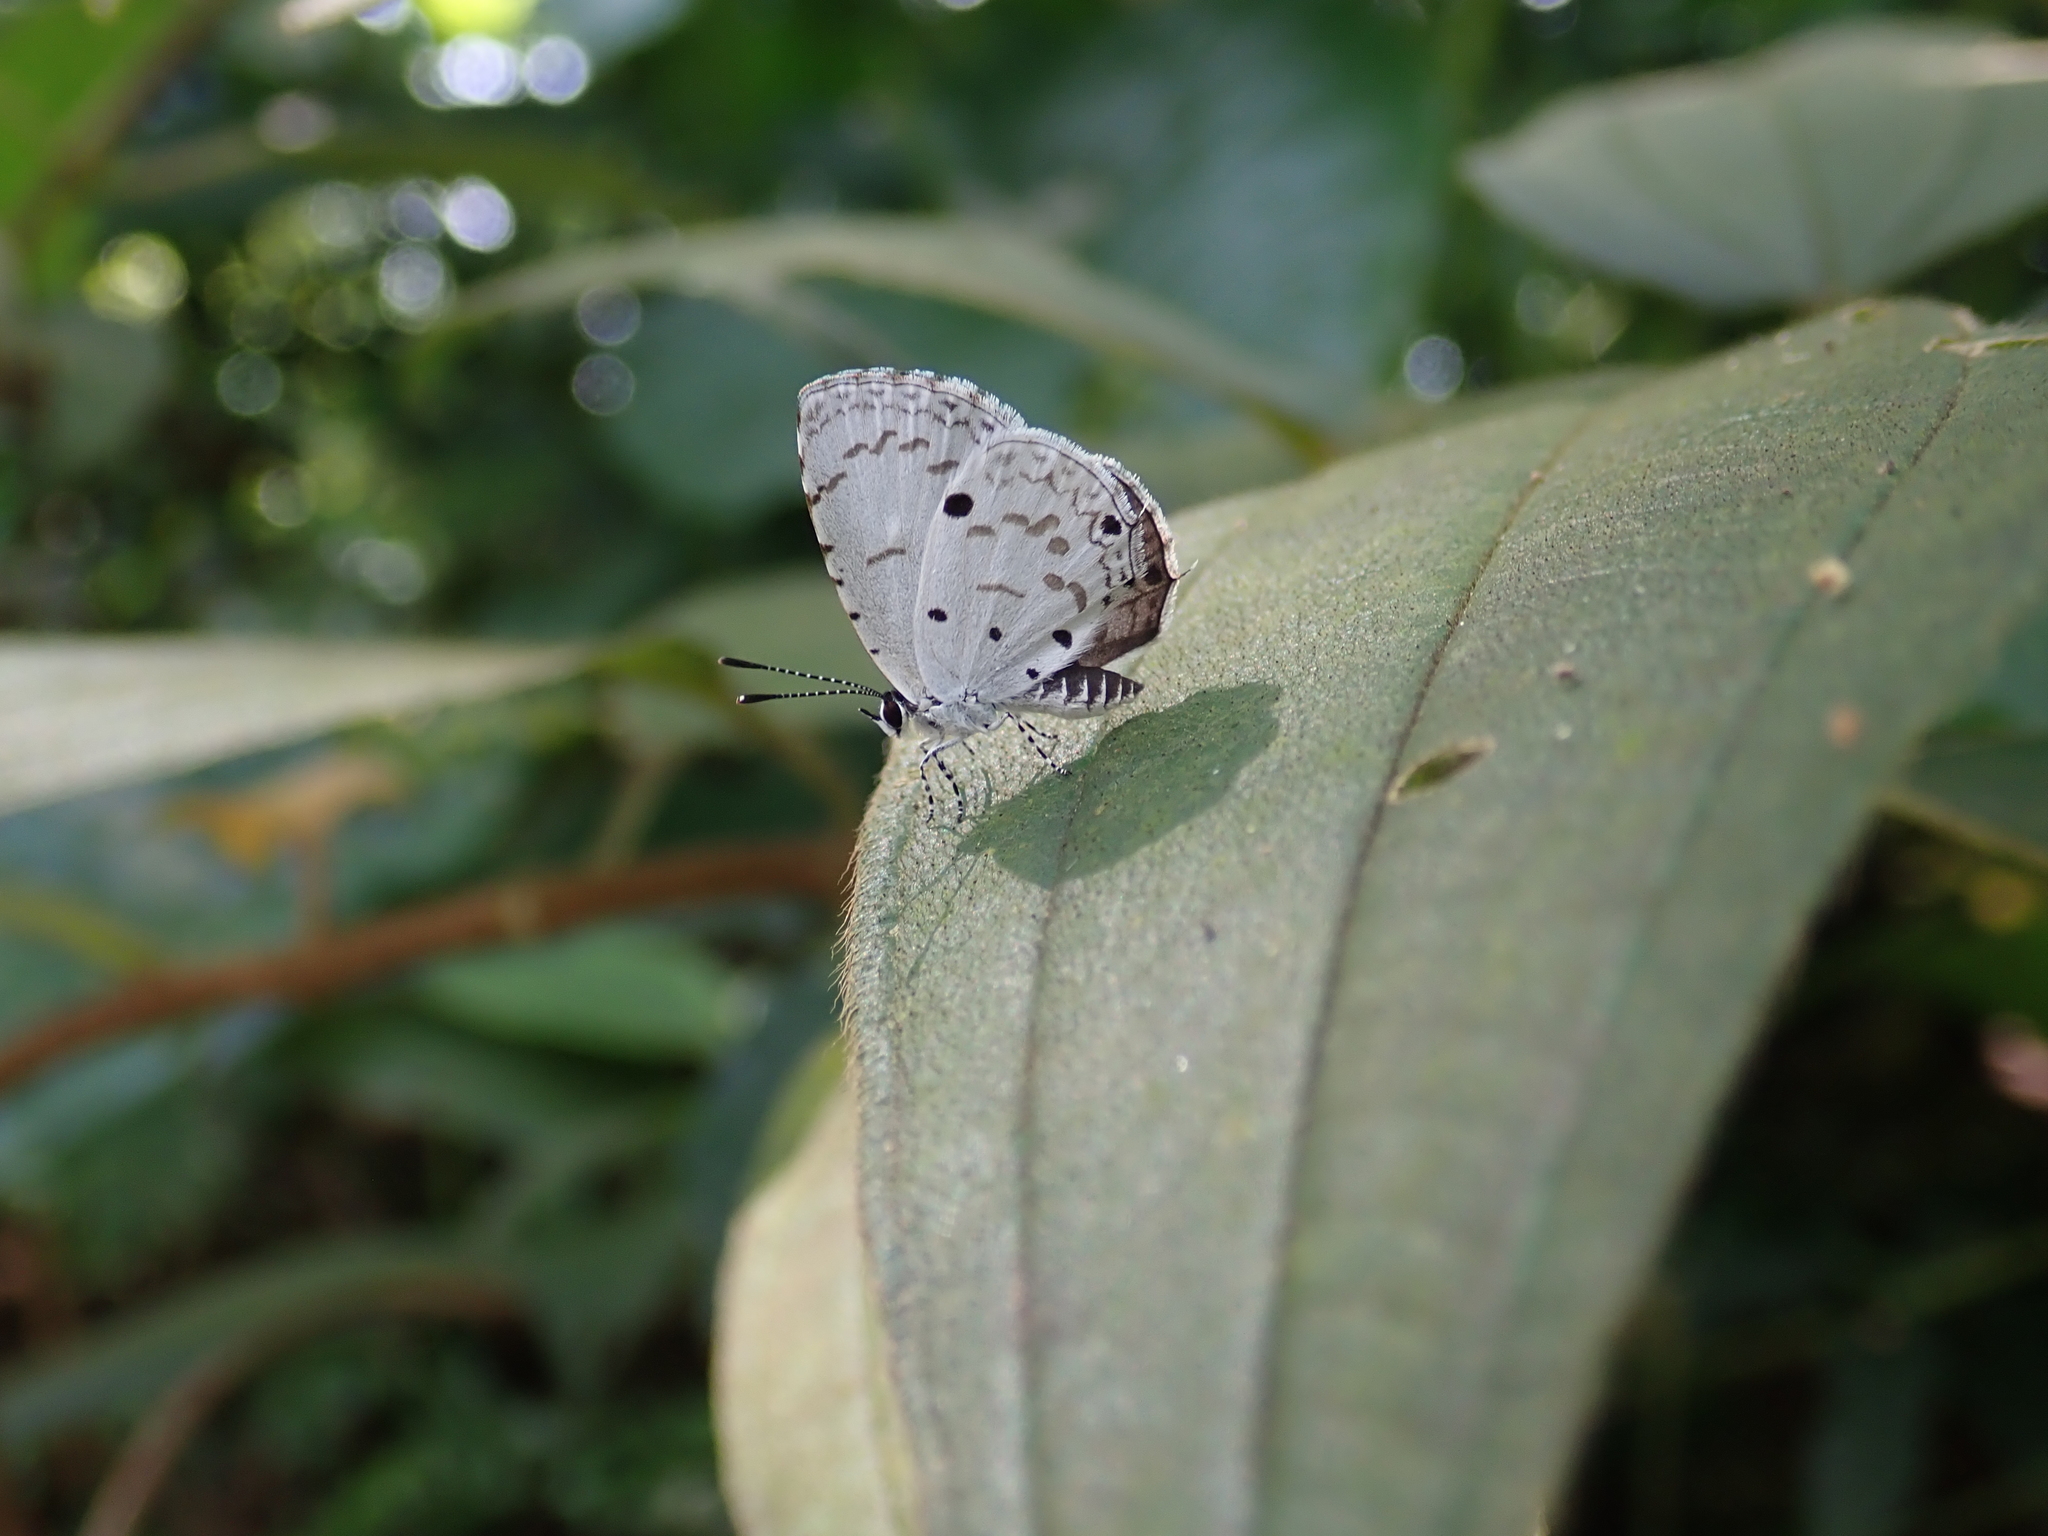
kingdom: Animalia
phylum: Arthropoda
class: Insecta
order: Lepidoptera
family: Lycaenidae
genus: Megisba
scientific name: Megisba malaya
